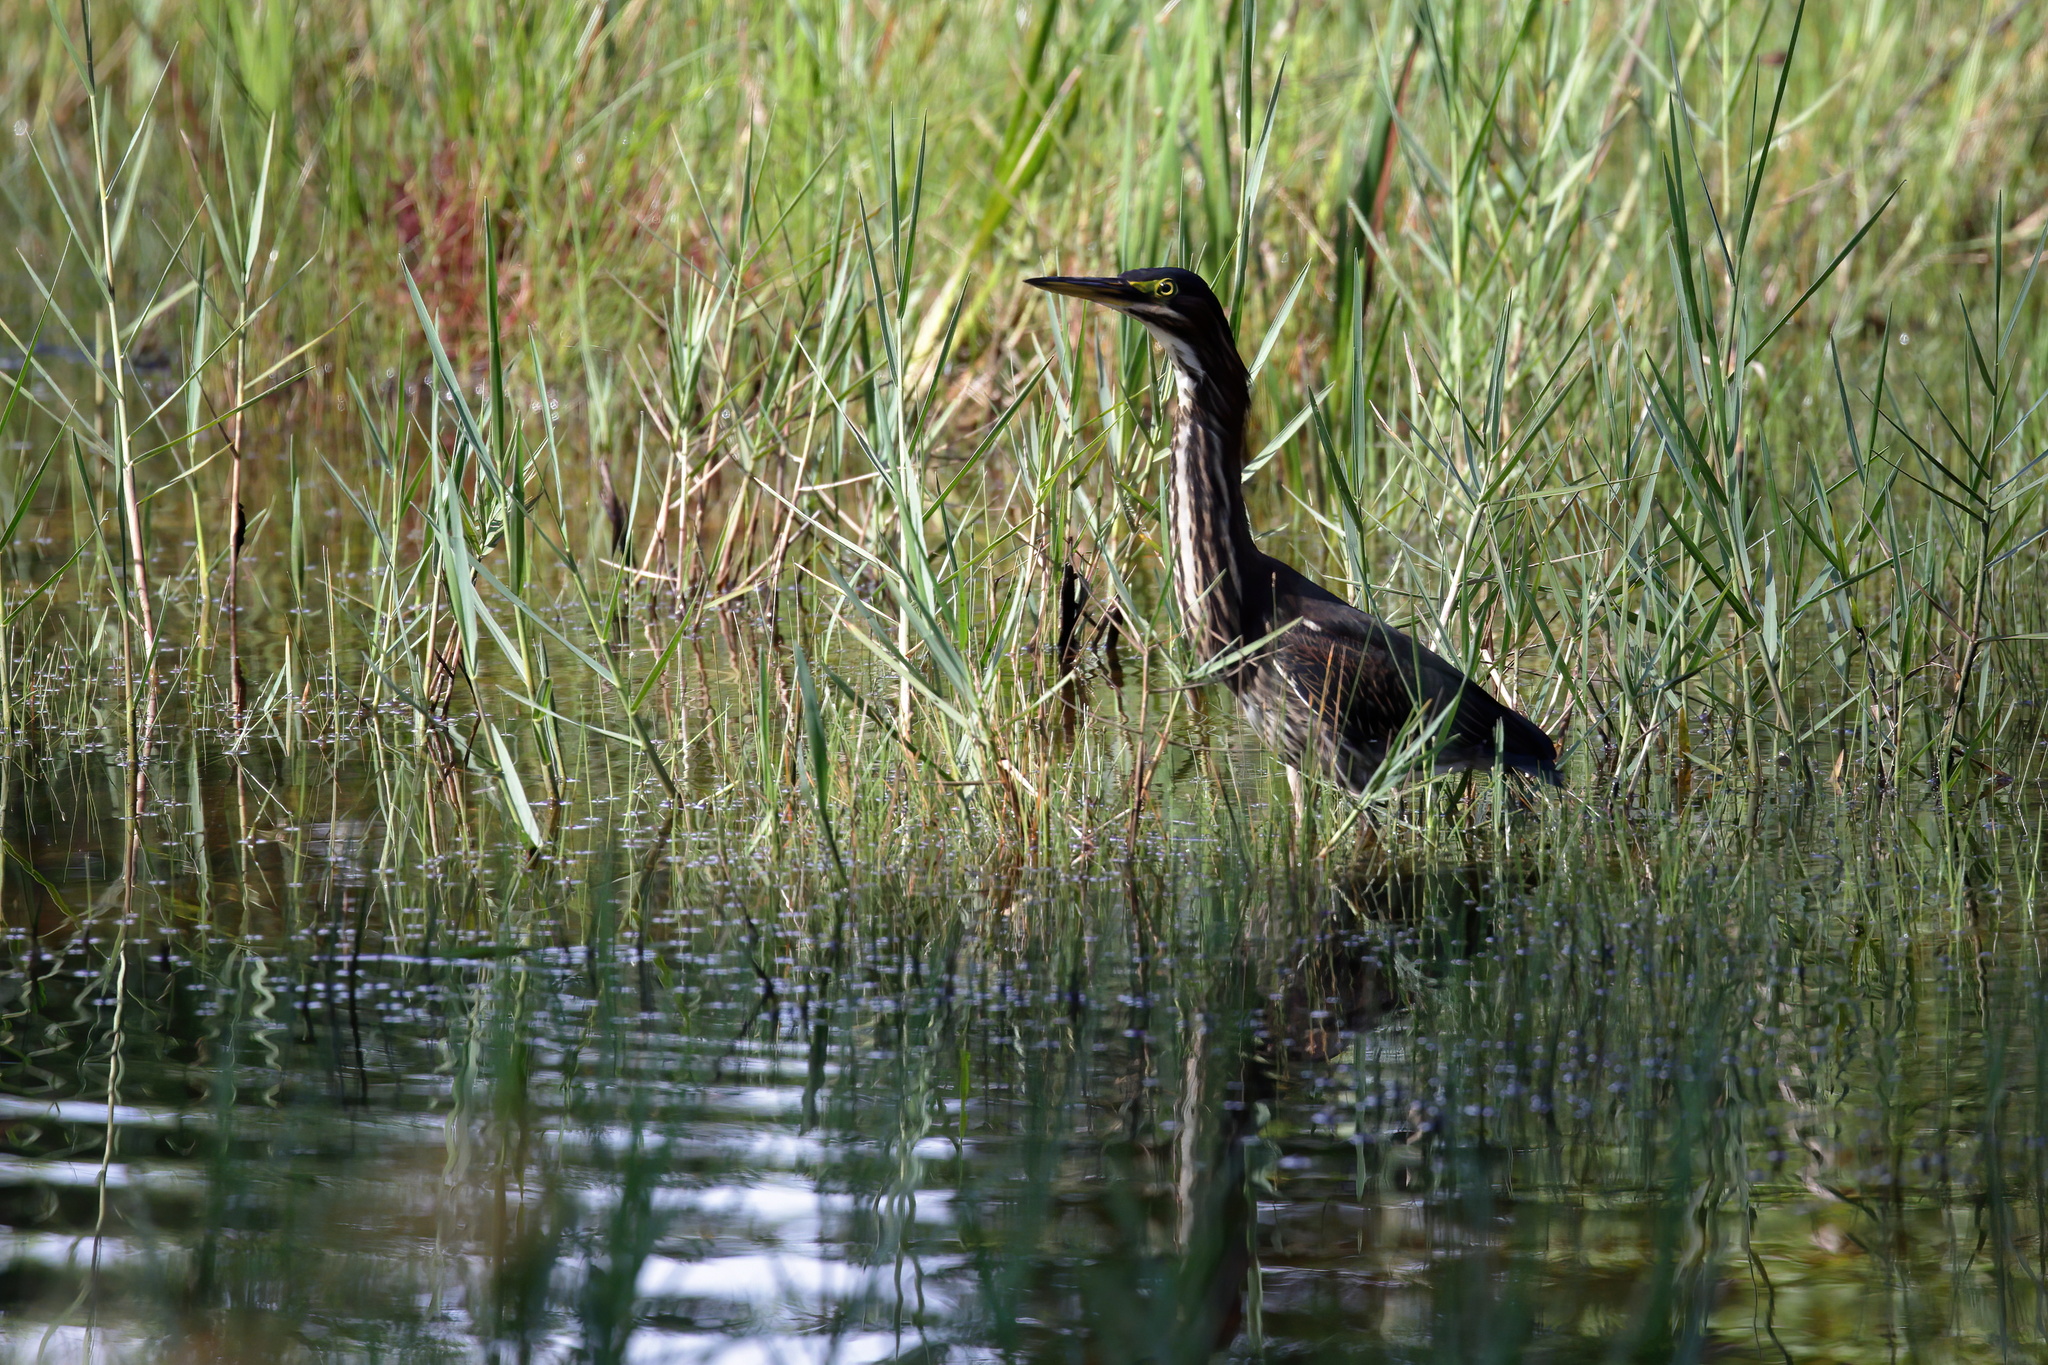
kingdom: Animalia
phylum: Chordata
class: Aves
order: Pelecaniformes
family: Ardeidae
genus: Butorides
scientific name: Butorides virescens
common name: Green heron
